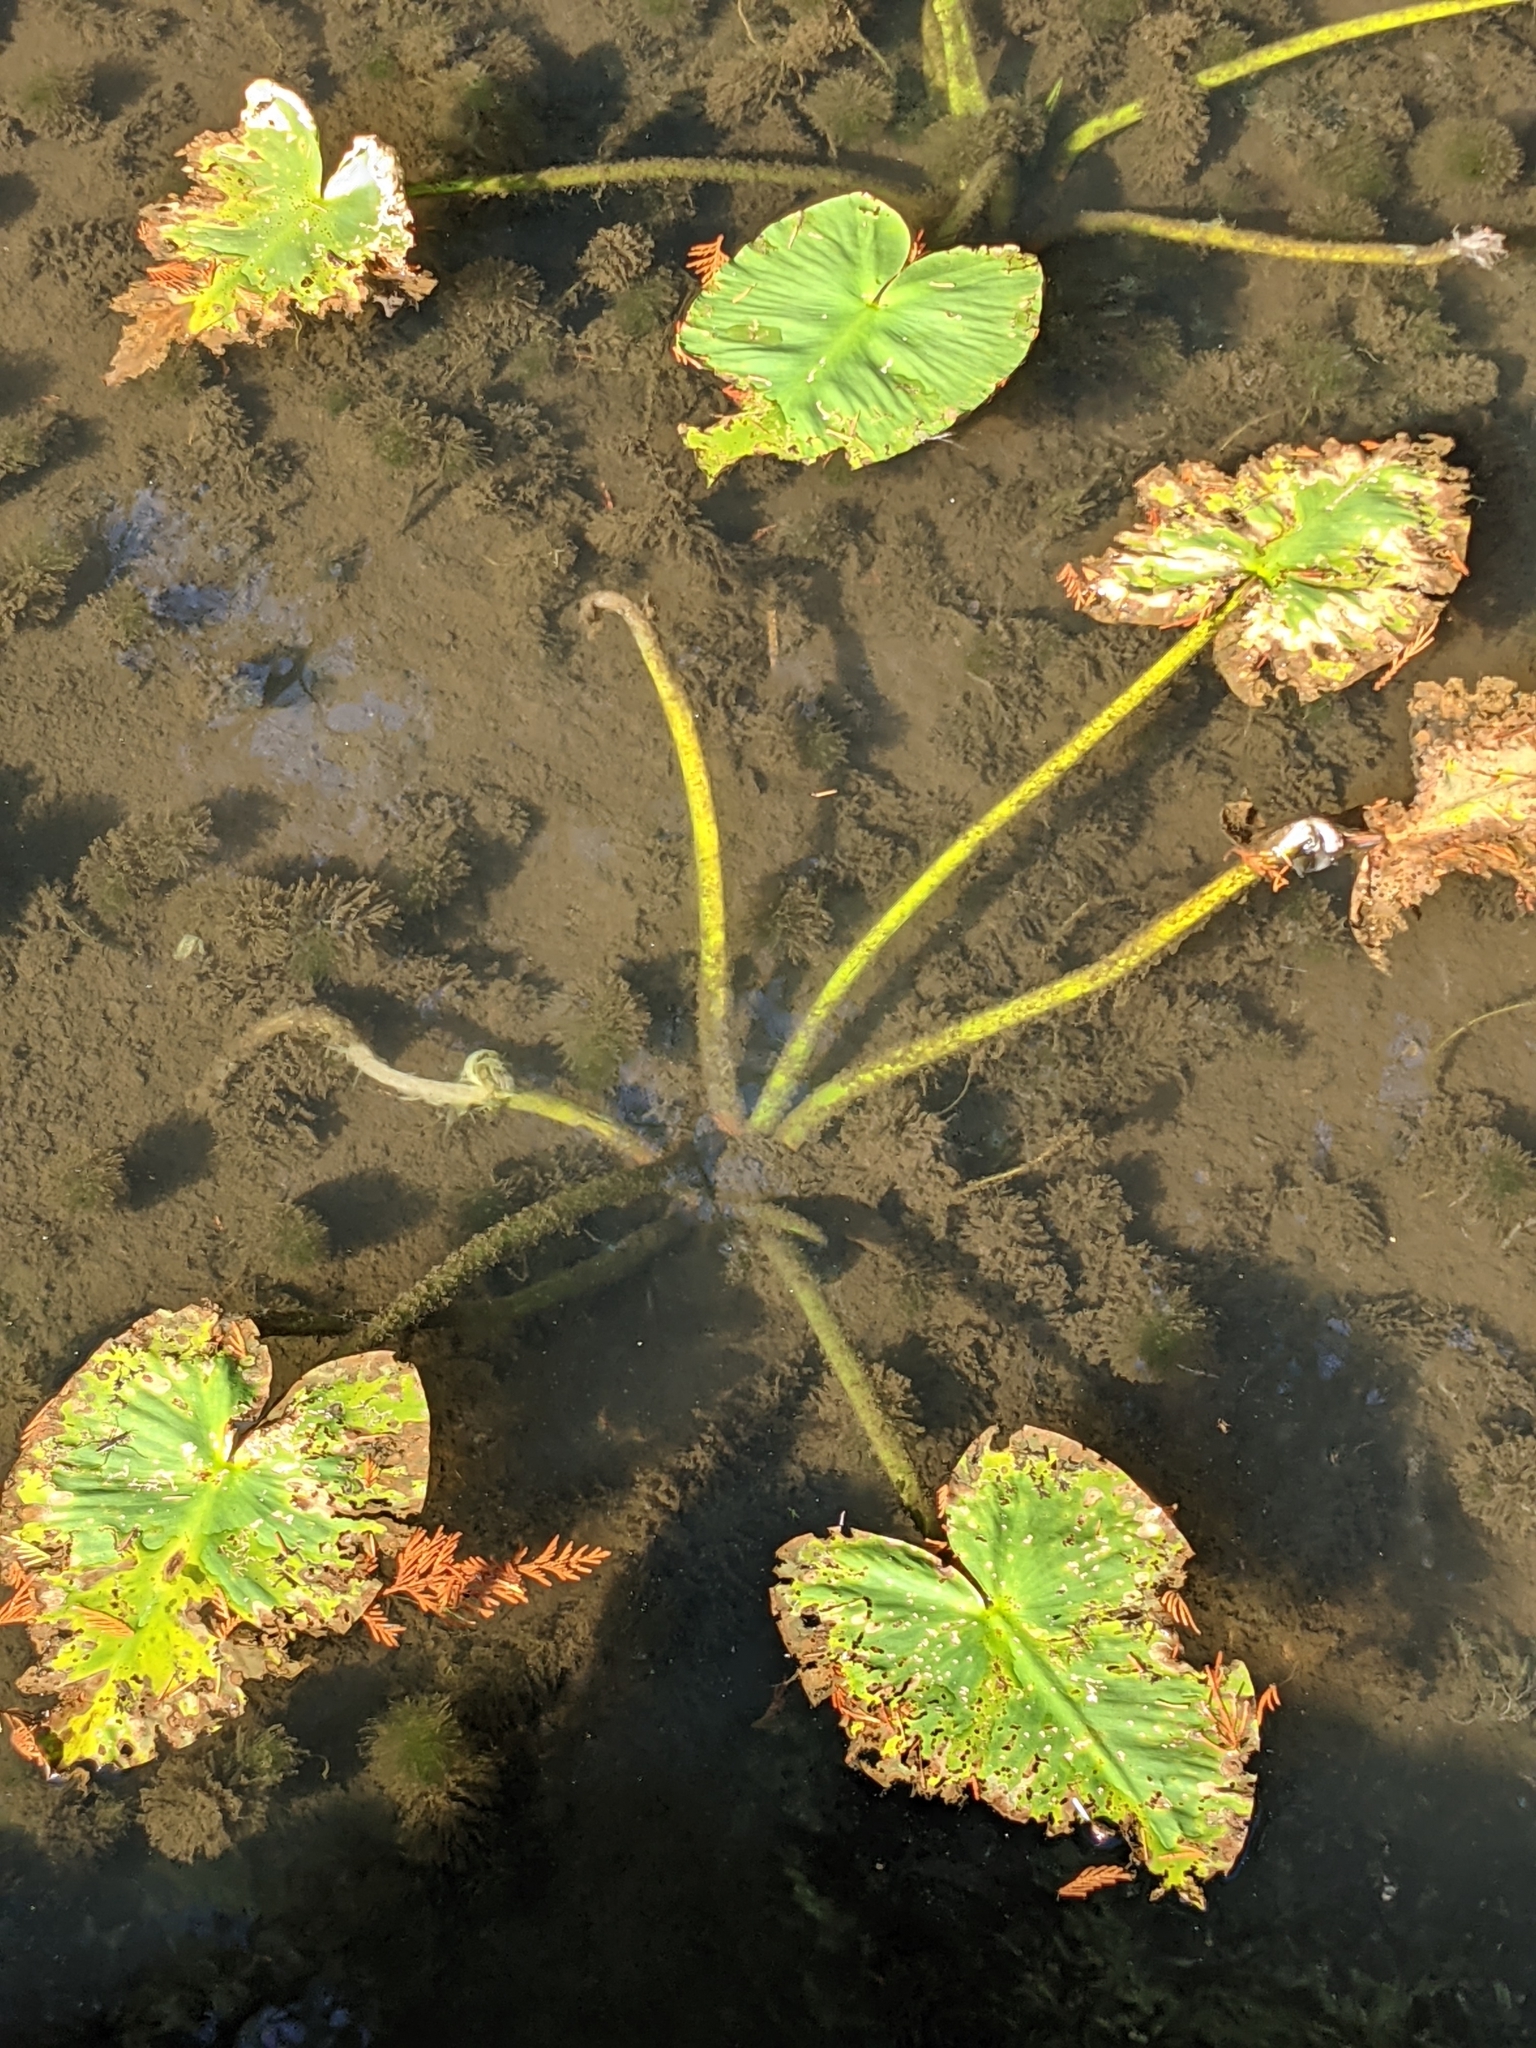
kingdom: Plantae
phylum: Tracheophyta
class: Magnoliopsida
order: Nymphaeales
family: Nymphaeaceae
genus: Nuphar
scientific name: Nuphar polysepala
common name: Rocky mountain cow-lily
